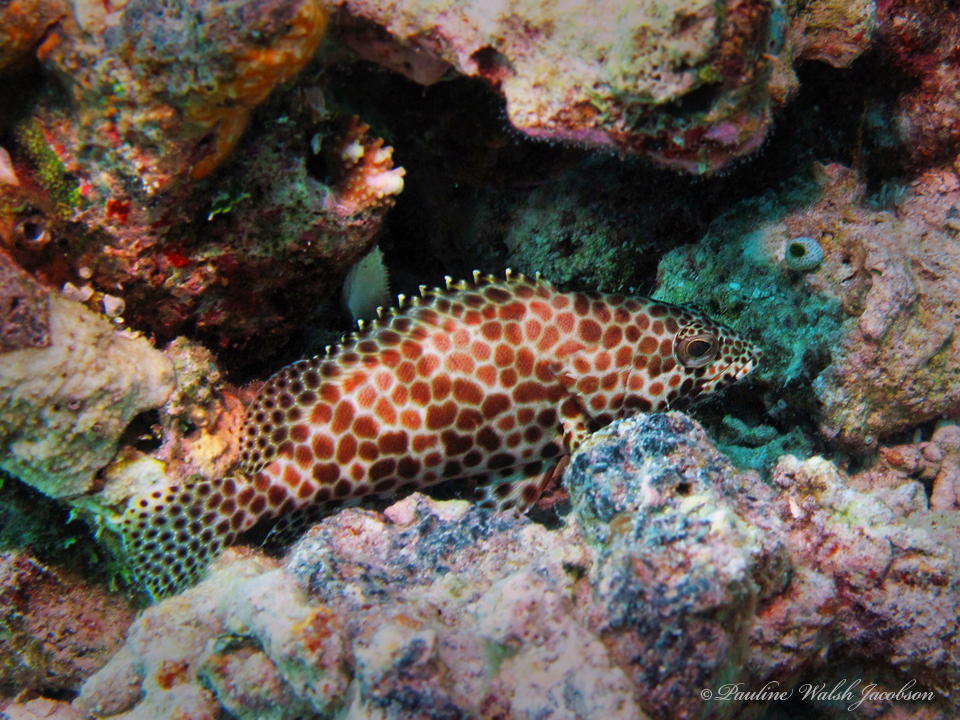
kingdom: Animalia
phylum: Chordata
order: Perciformes
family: Serranidae
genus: Epinephelus
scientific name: Epinephelus merra
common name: Honeycomb grouper
